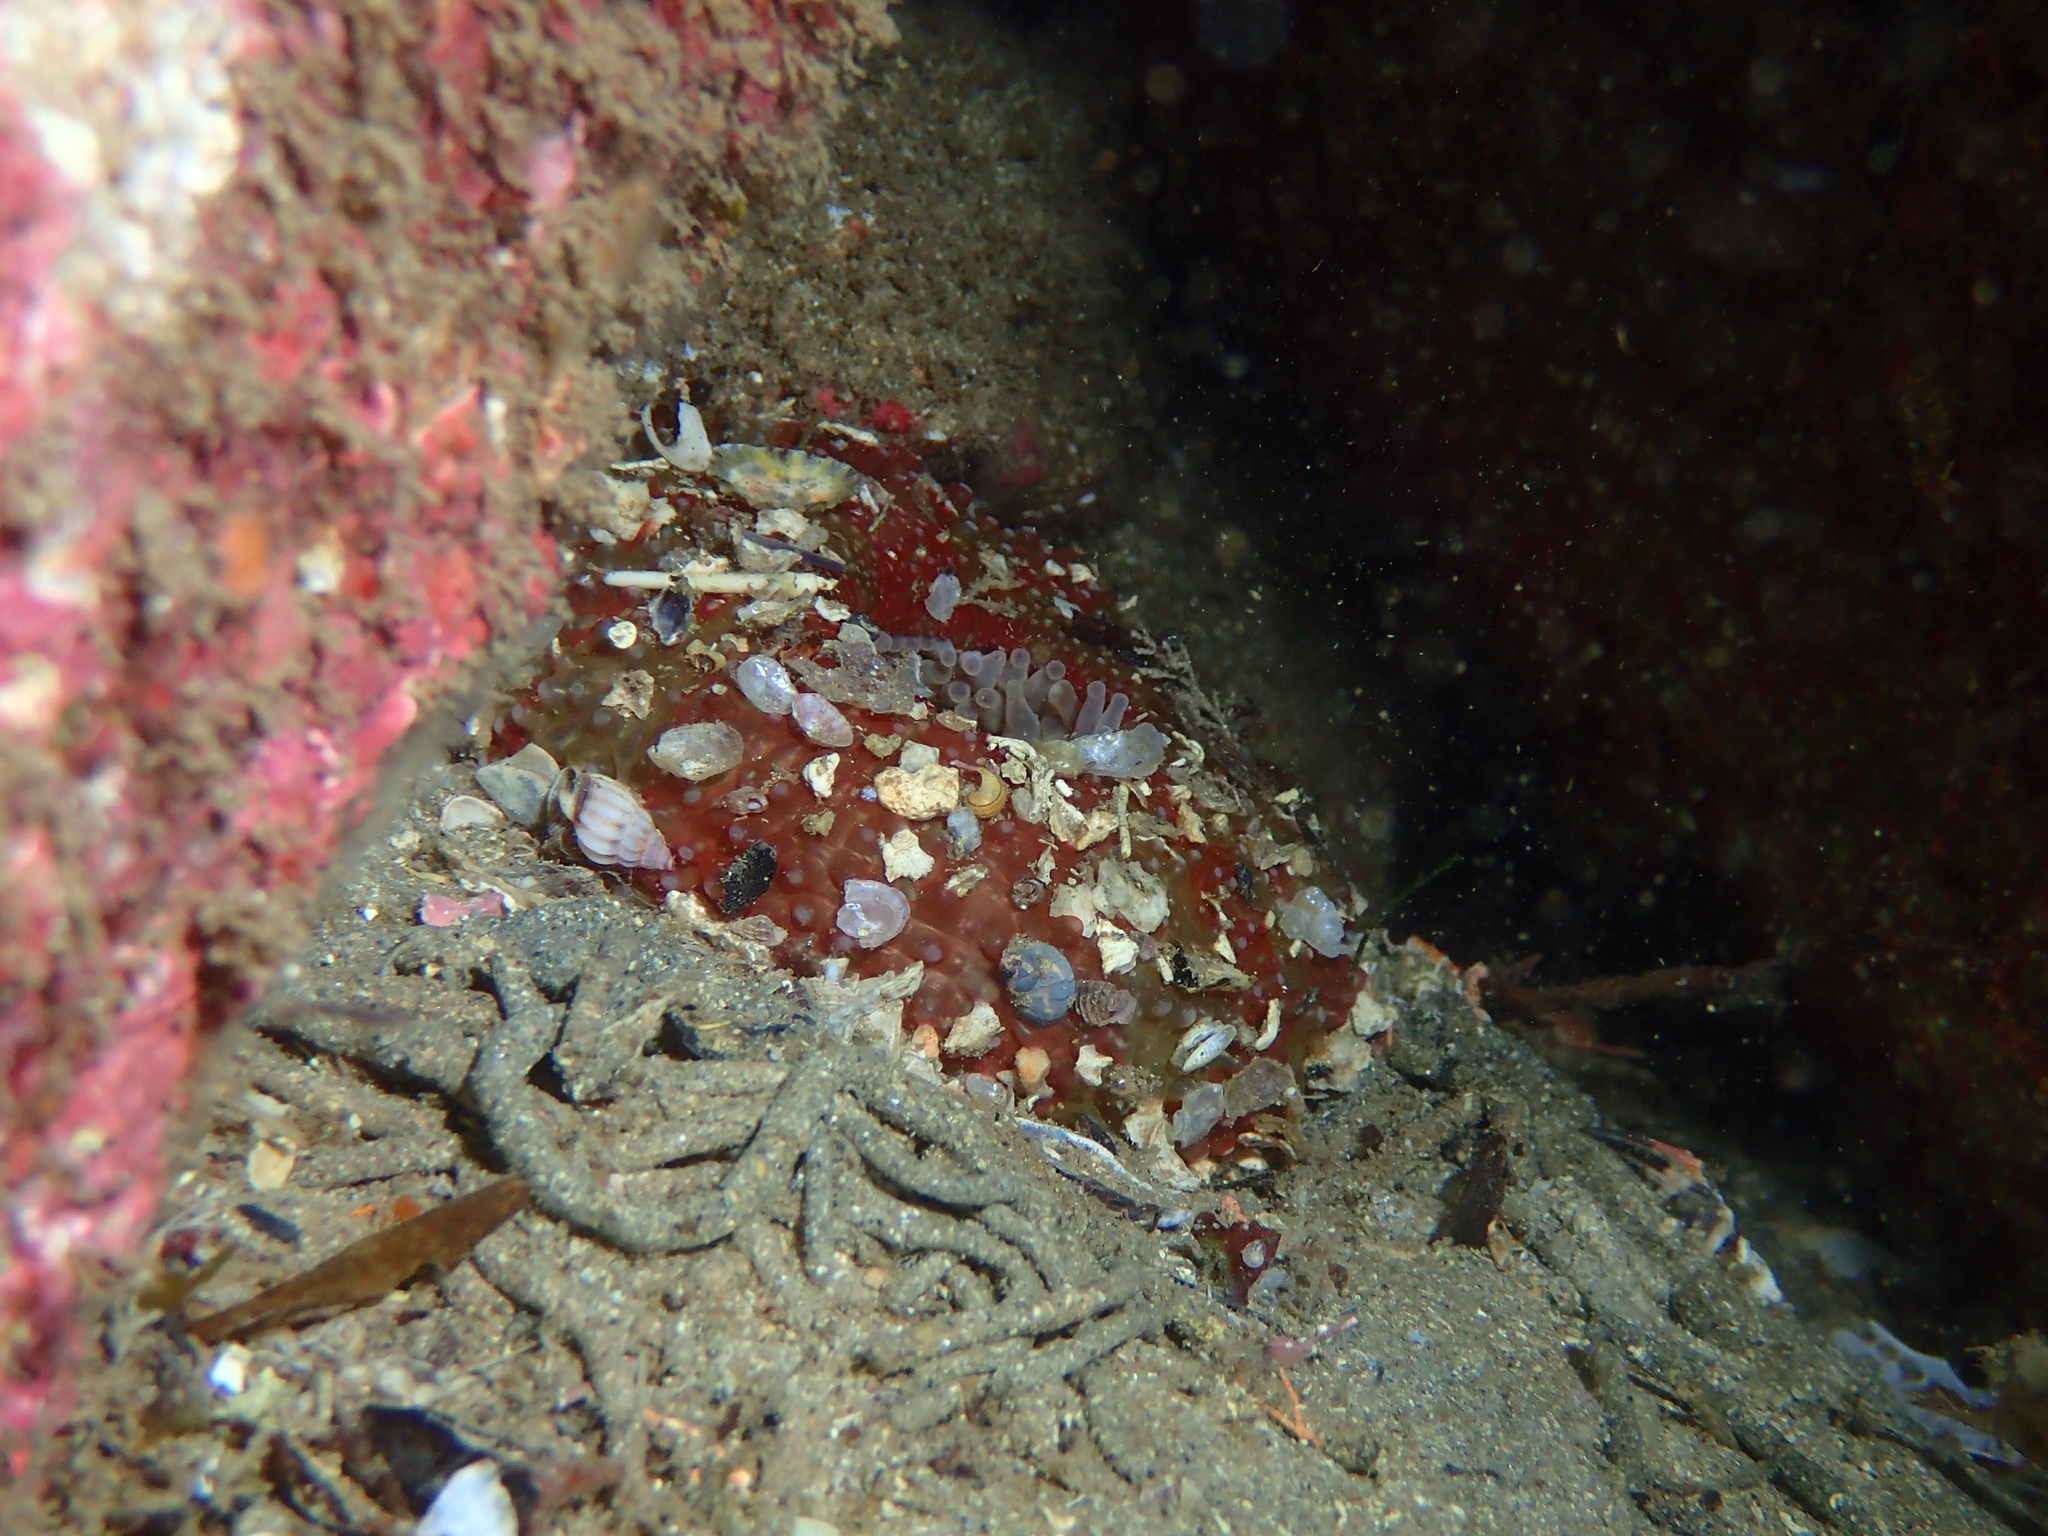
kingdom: Animalia
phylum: Cnidaria
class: Anthozoa
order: Actiniaria
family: Actiniidae
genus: Urticina
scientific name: Urticina felina
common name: Dahlia anemone
